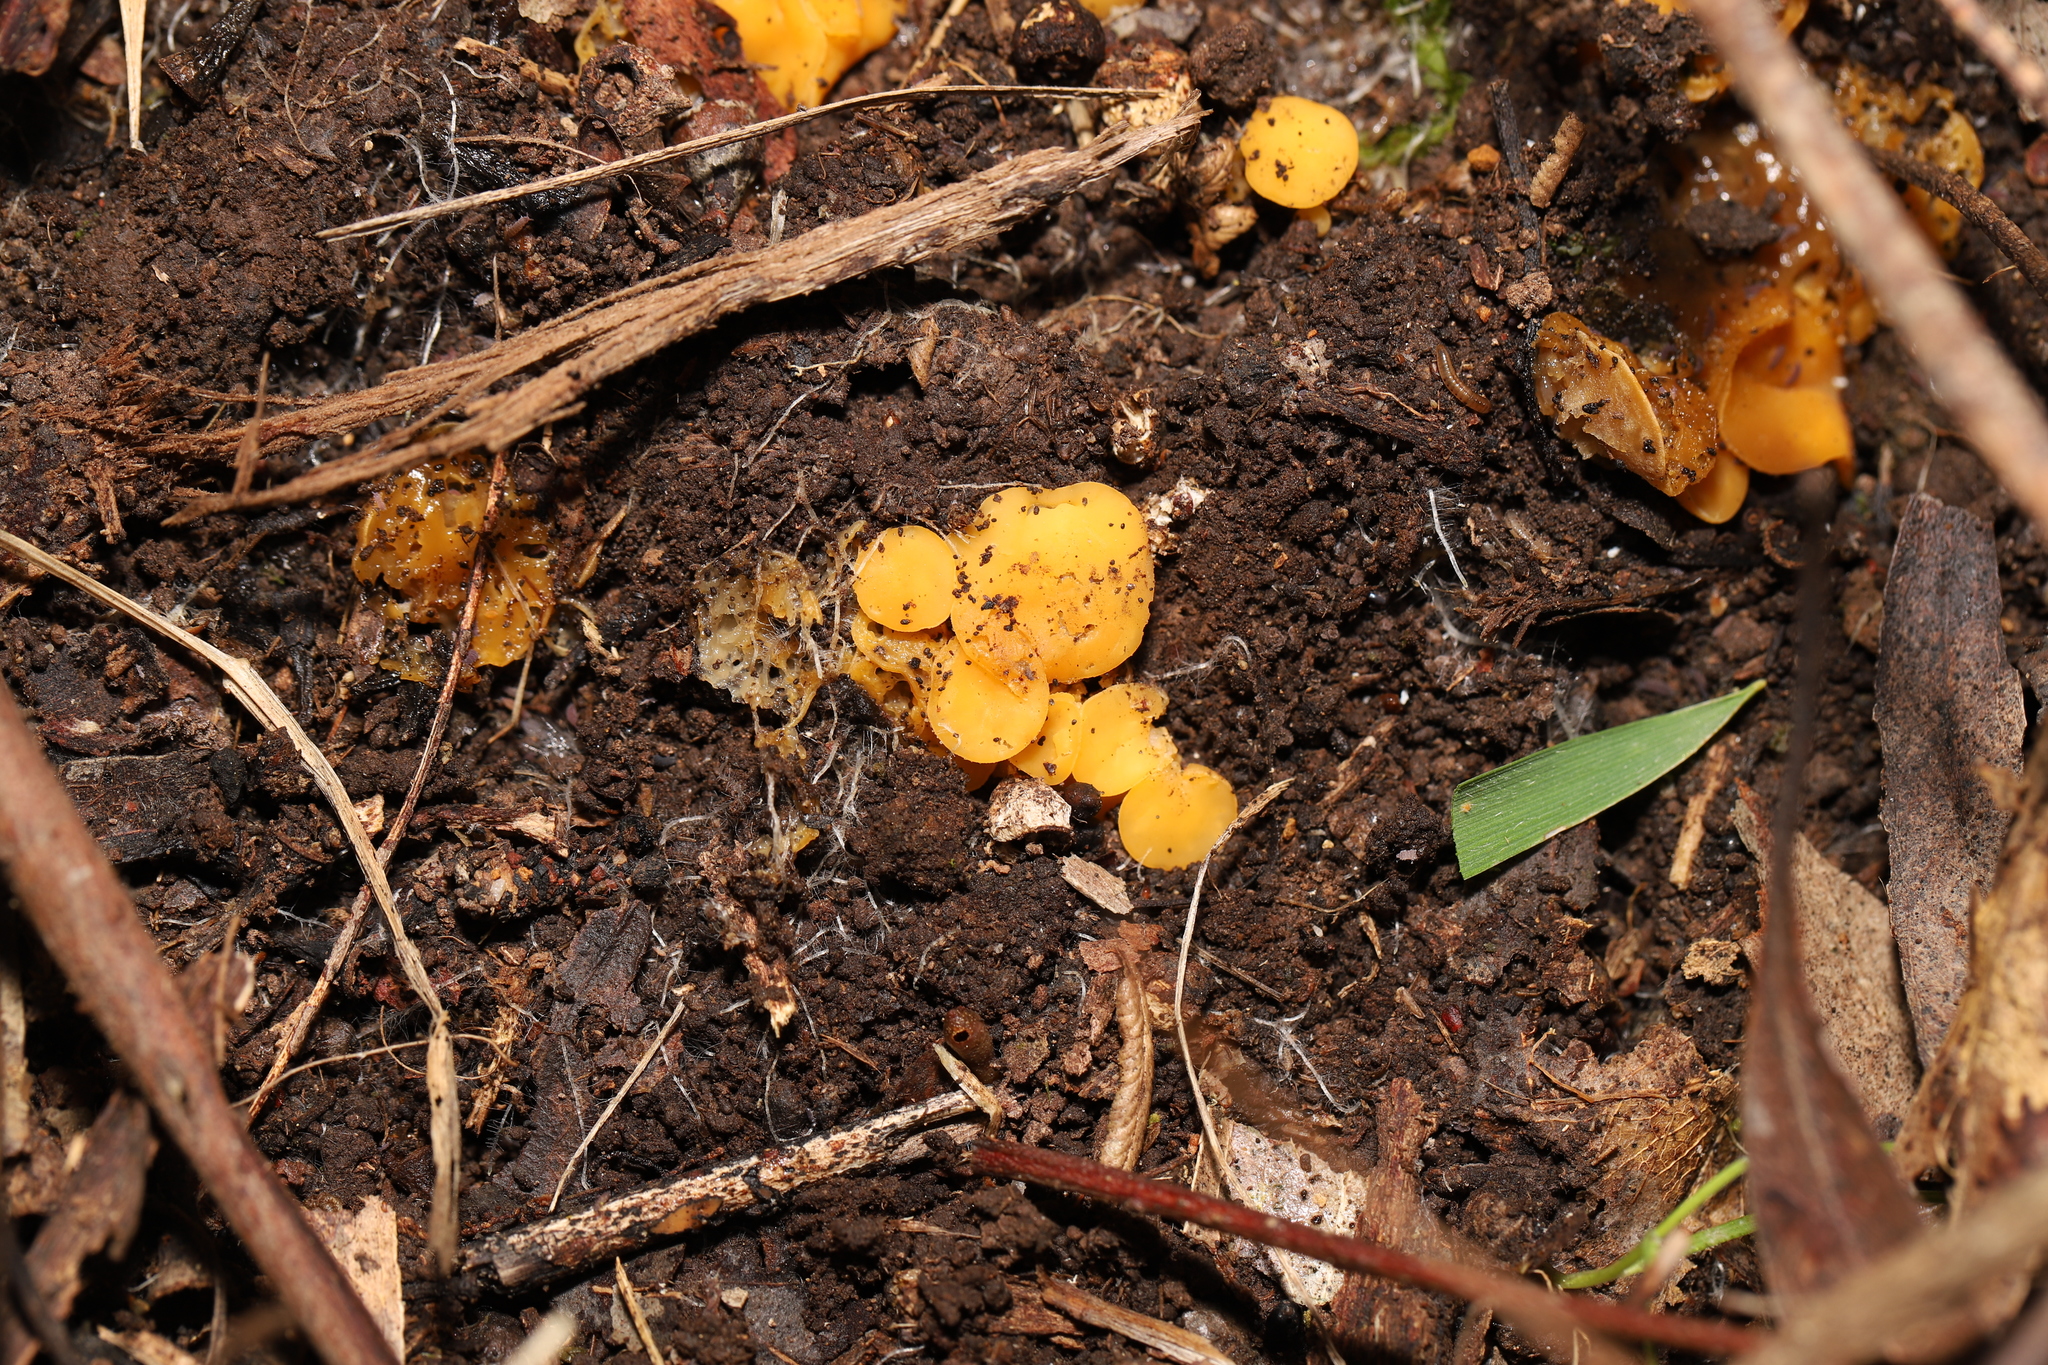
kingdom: Fungi
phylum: Ascomycota
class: Leotiomycetes
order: Helotiales
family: Helotiaceae
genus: Phaeohelotium
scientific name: Phaeohelotium baileyanum
